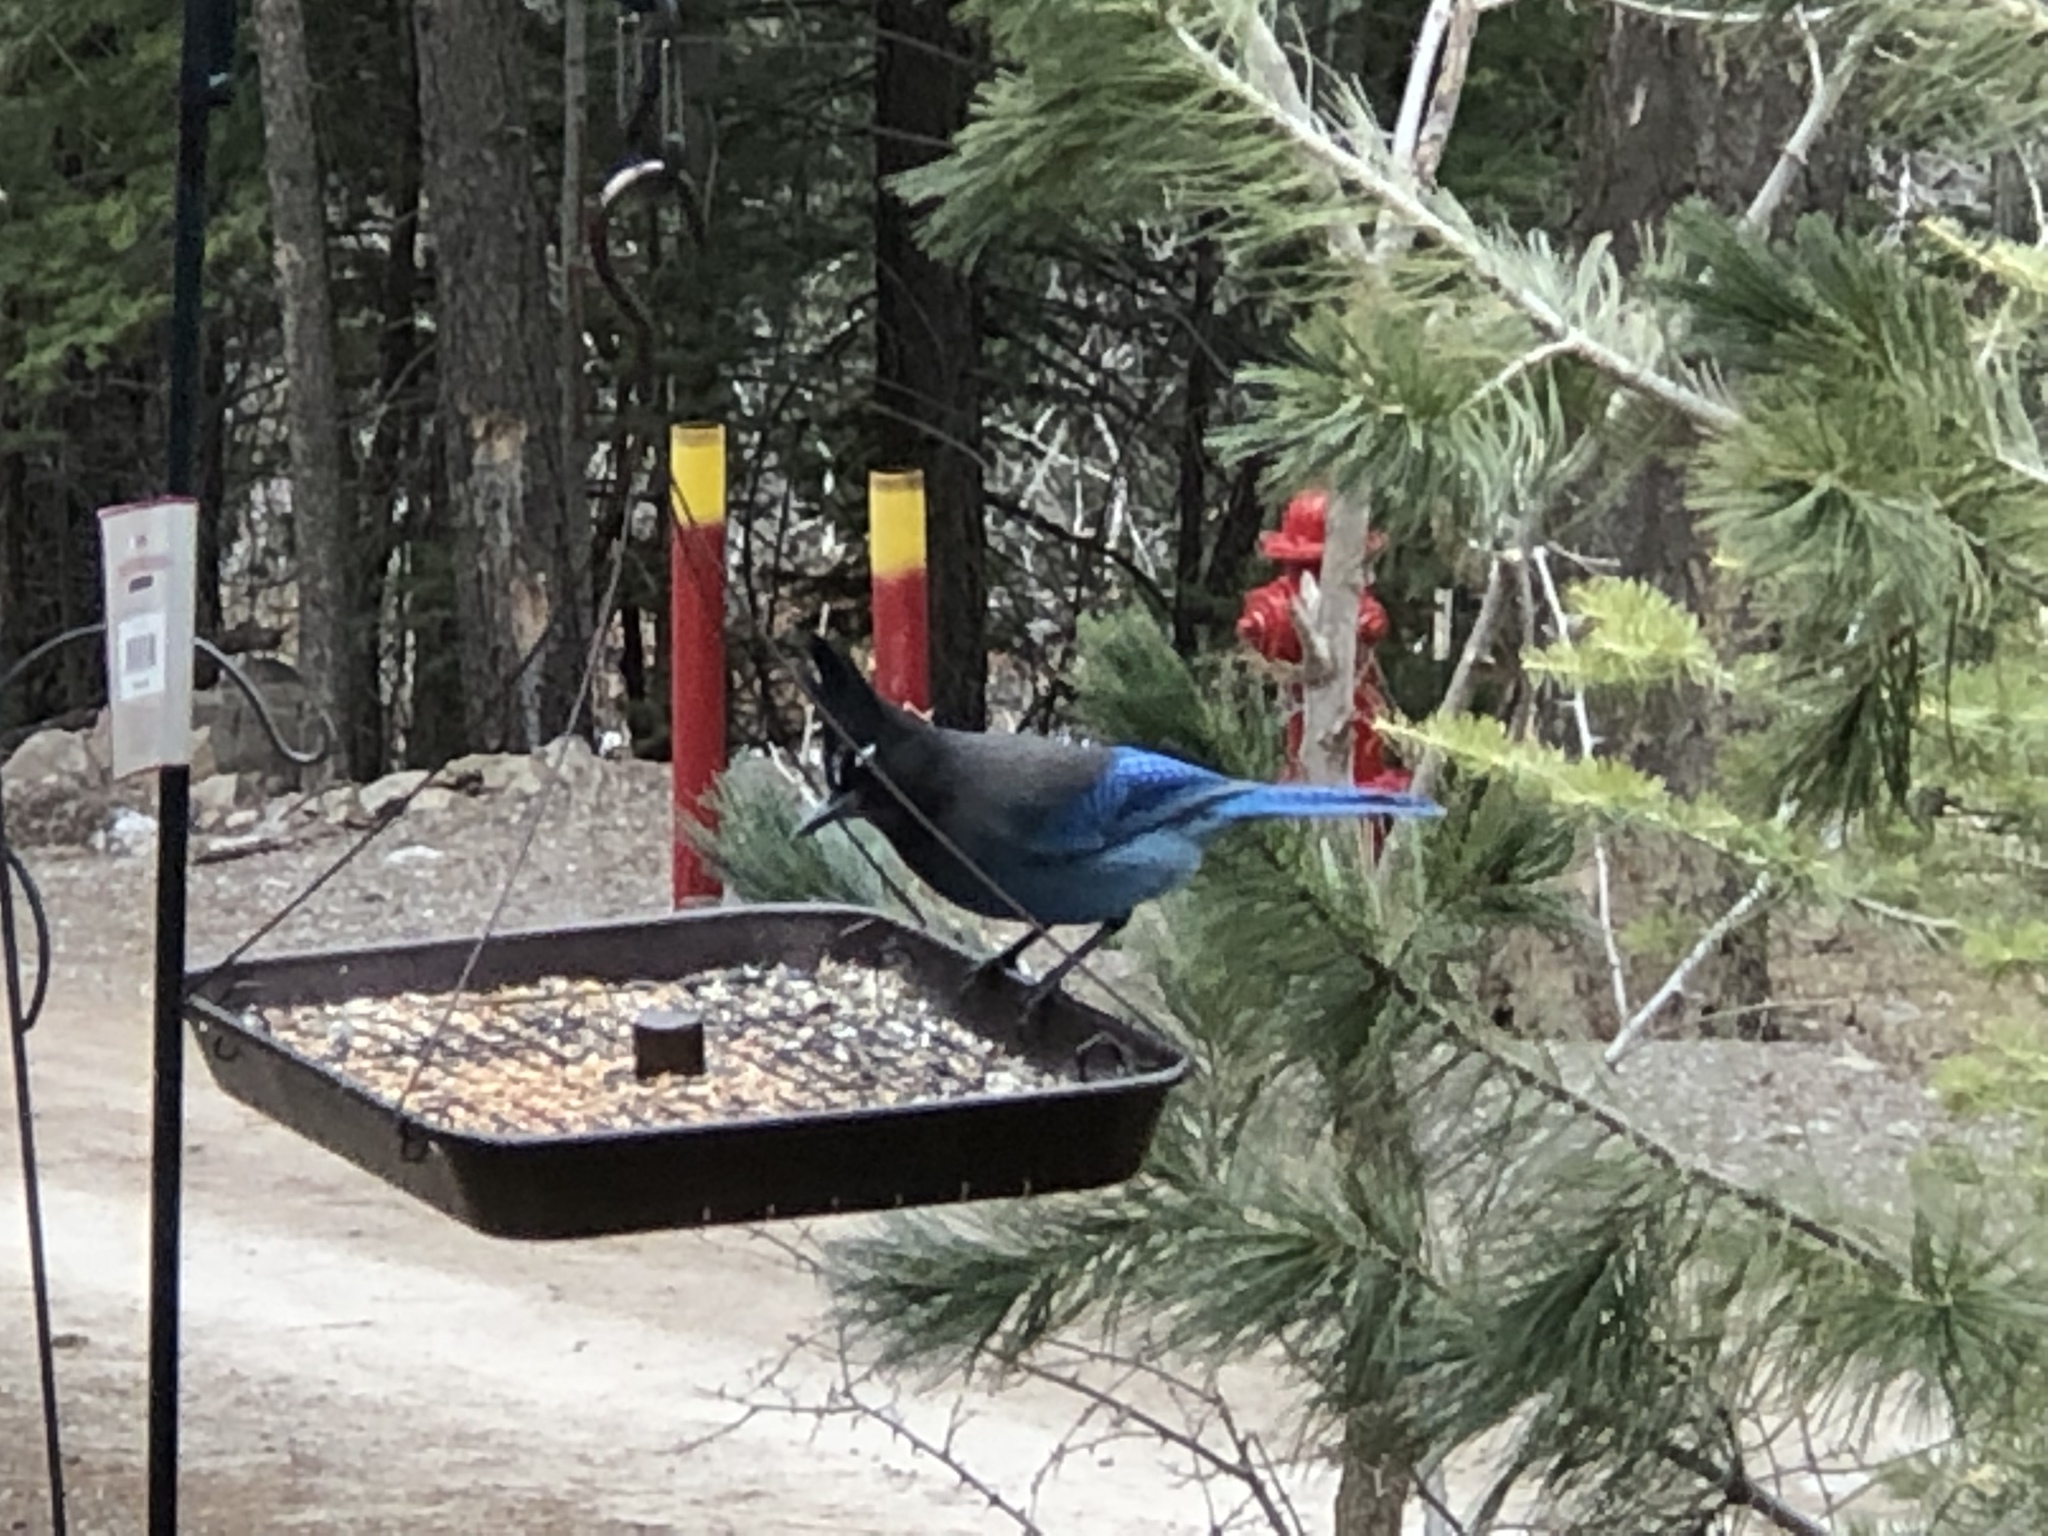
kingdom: Animalia
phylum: Chordata
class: Aves
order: Passeriformes
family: Corvidae
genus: Cyanocitta
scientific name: Cyanocitta stelleri
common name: Steller's jay
